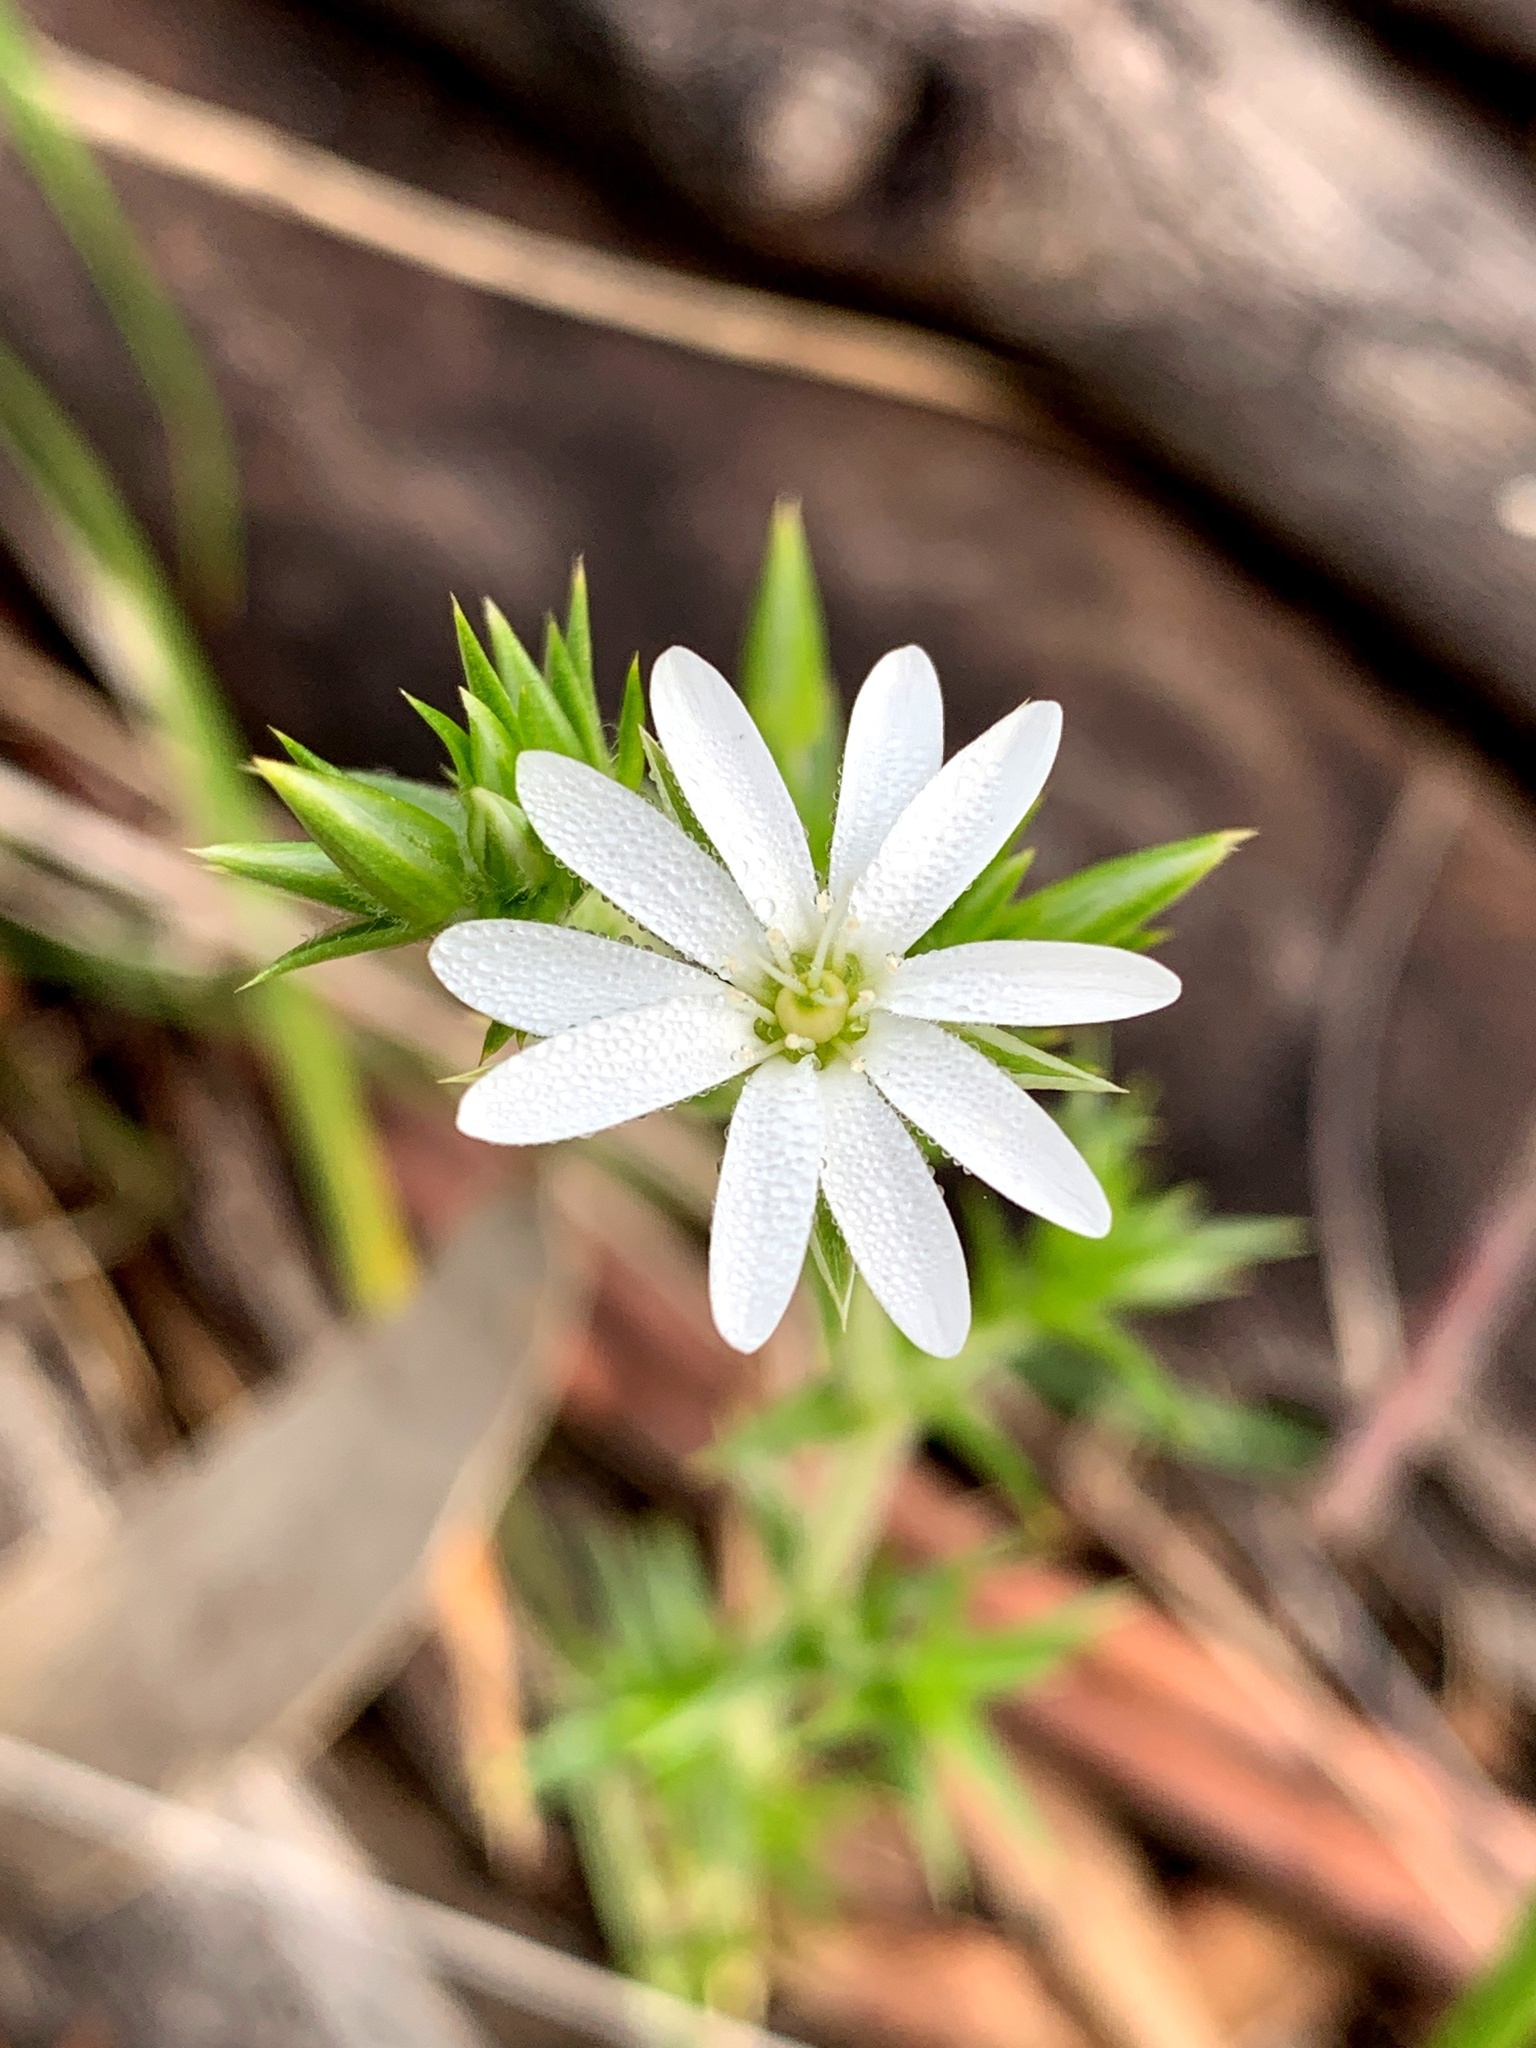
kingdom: Plantae
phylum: Tracheophyta
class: Magnoliopsida
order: Caryophyllales
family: Caryophyllaceae
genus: Stellaria
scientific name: Stellaria pungens
